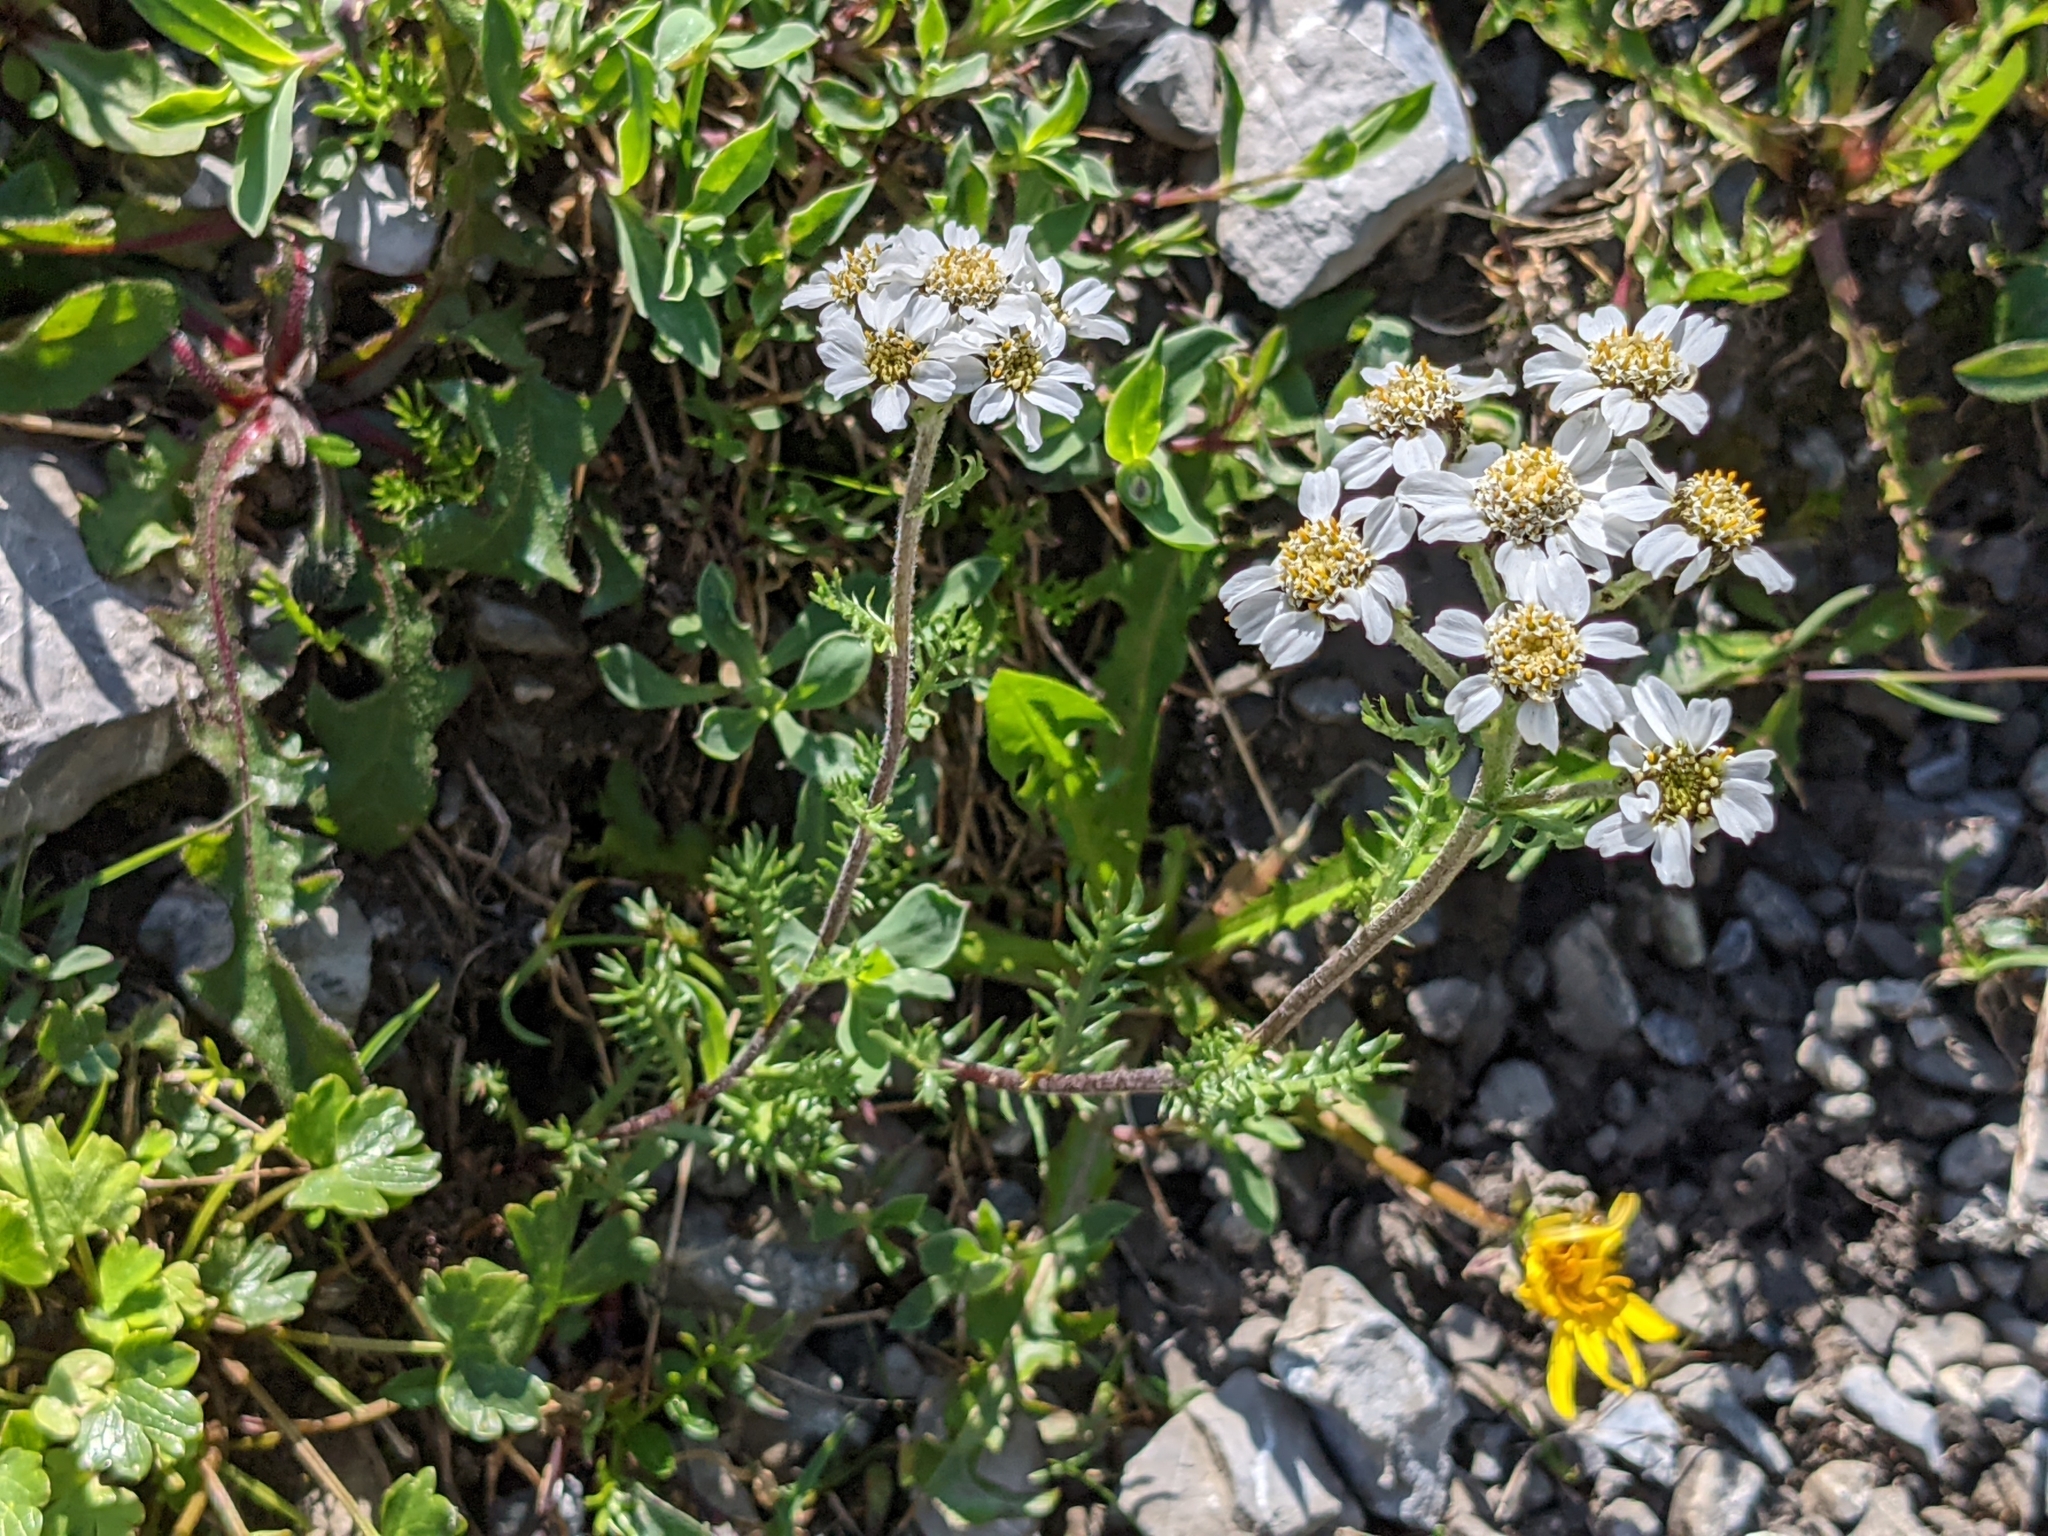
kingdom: Plantae
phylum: Tracheophyta
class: Magnoliopsida
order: Asterales
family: Asteraceae
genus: Achillea
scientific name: Achillea erba-rotta
